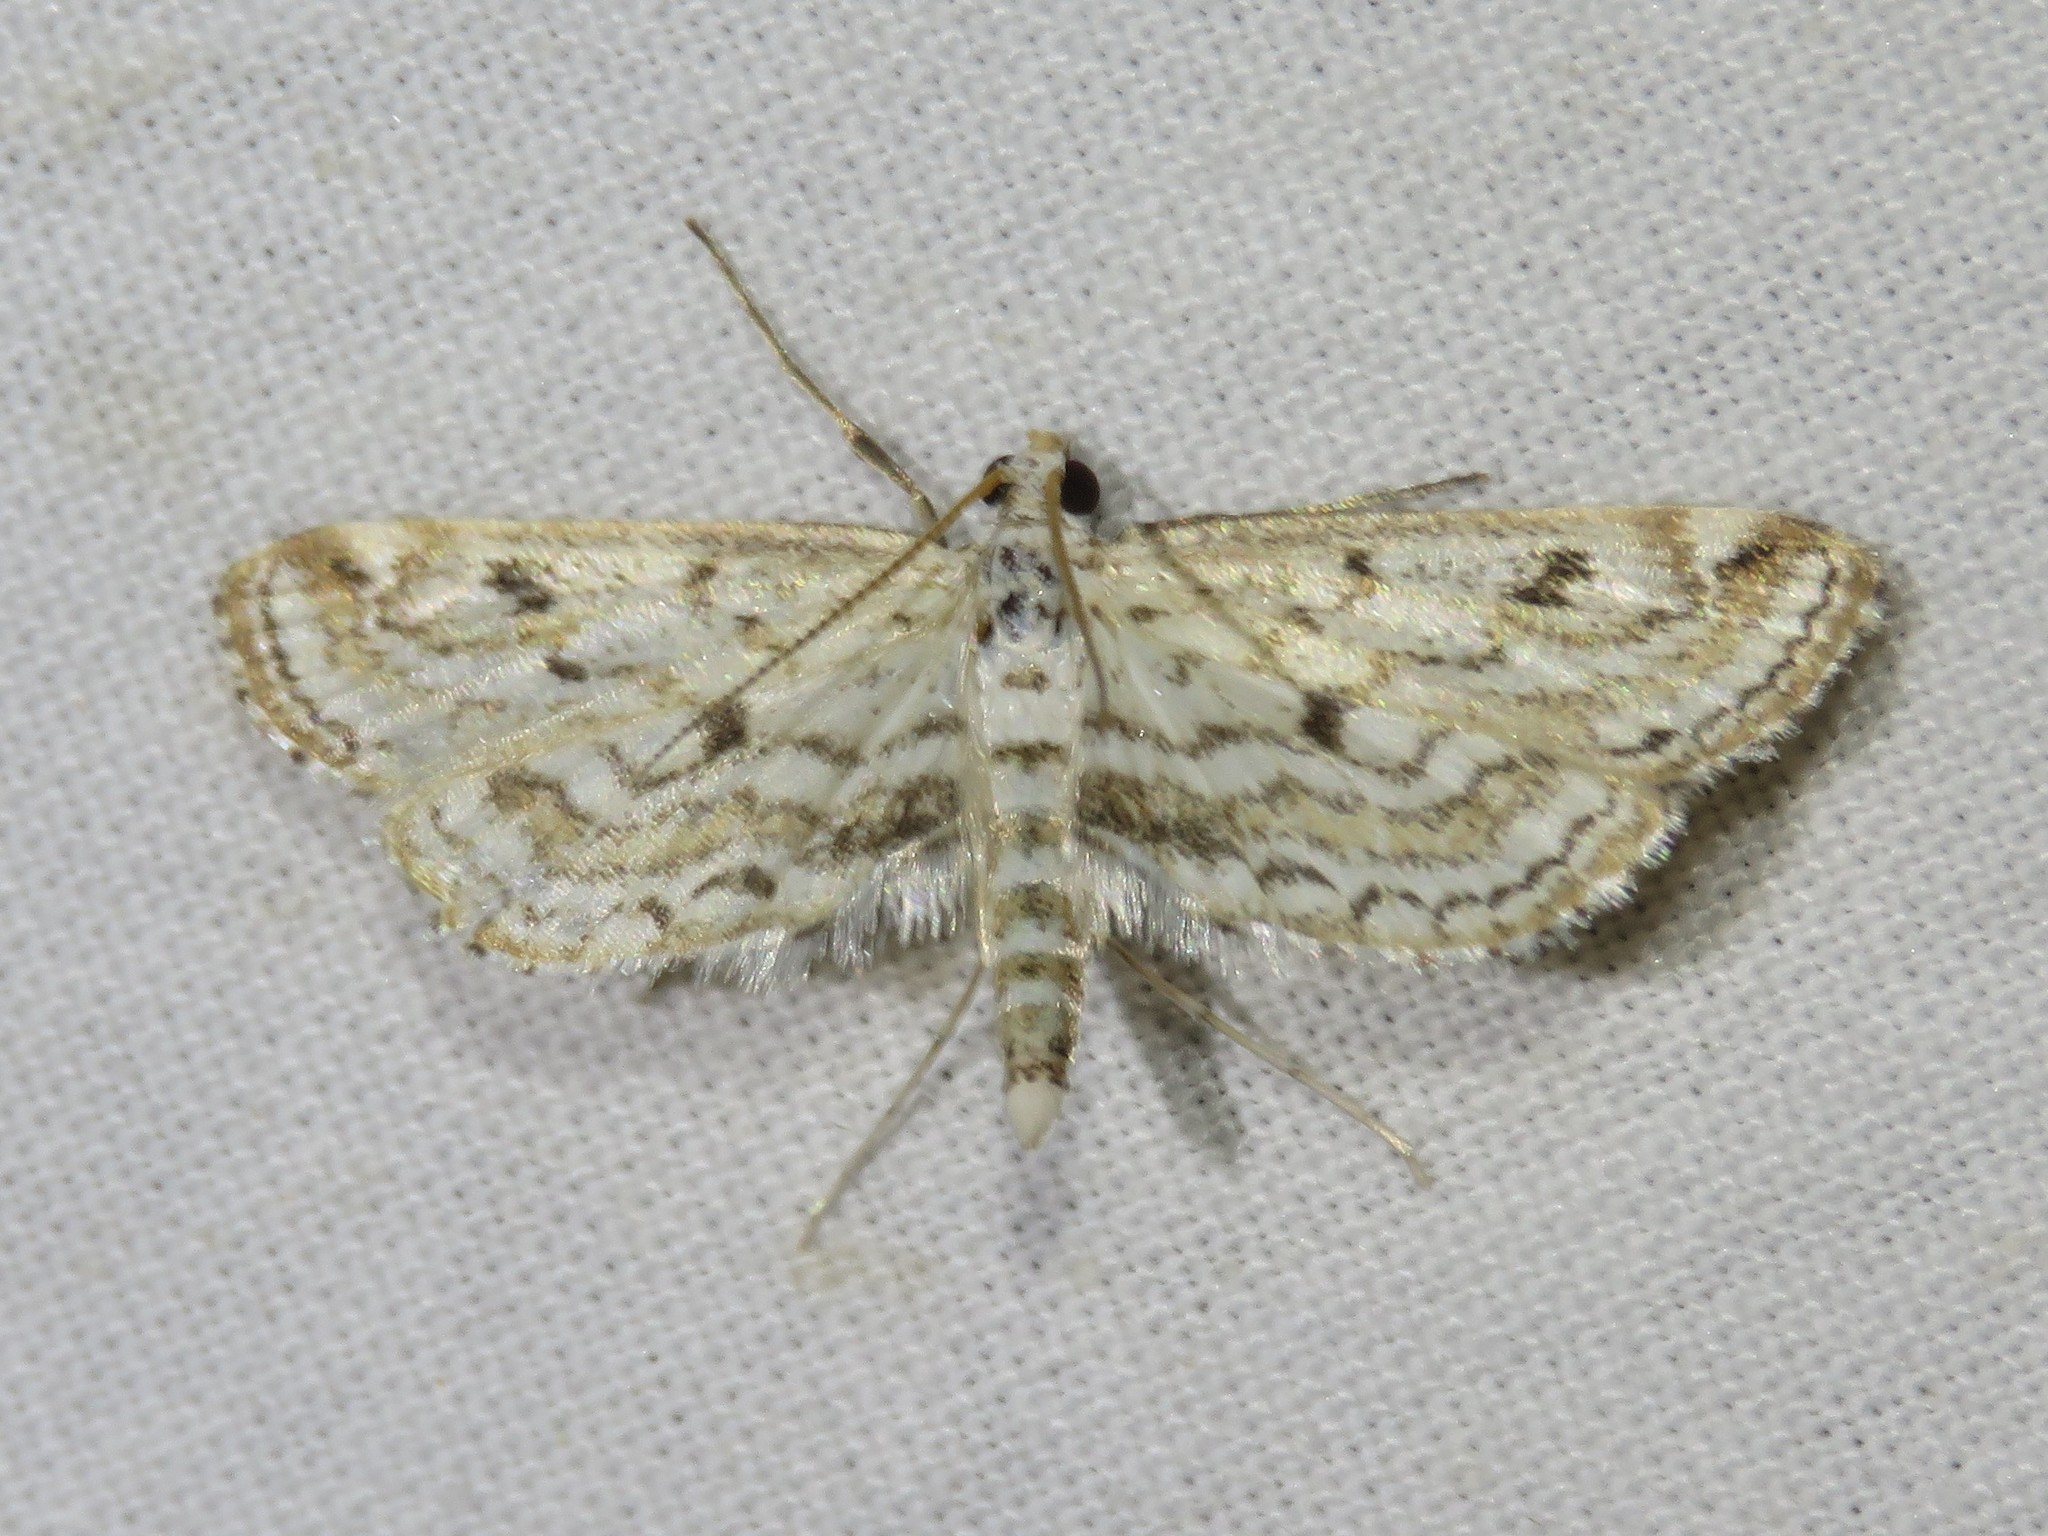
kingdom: Animalia
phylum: Arthropoda
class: Insecta
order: Lepidoptera
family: Crambidae
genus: Parapoynx
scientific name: Parapoynx allionealis
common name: Bladderwort casemaker
